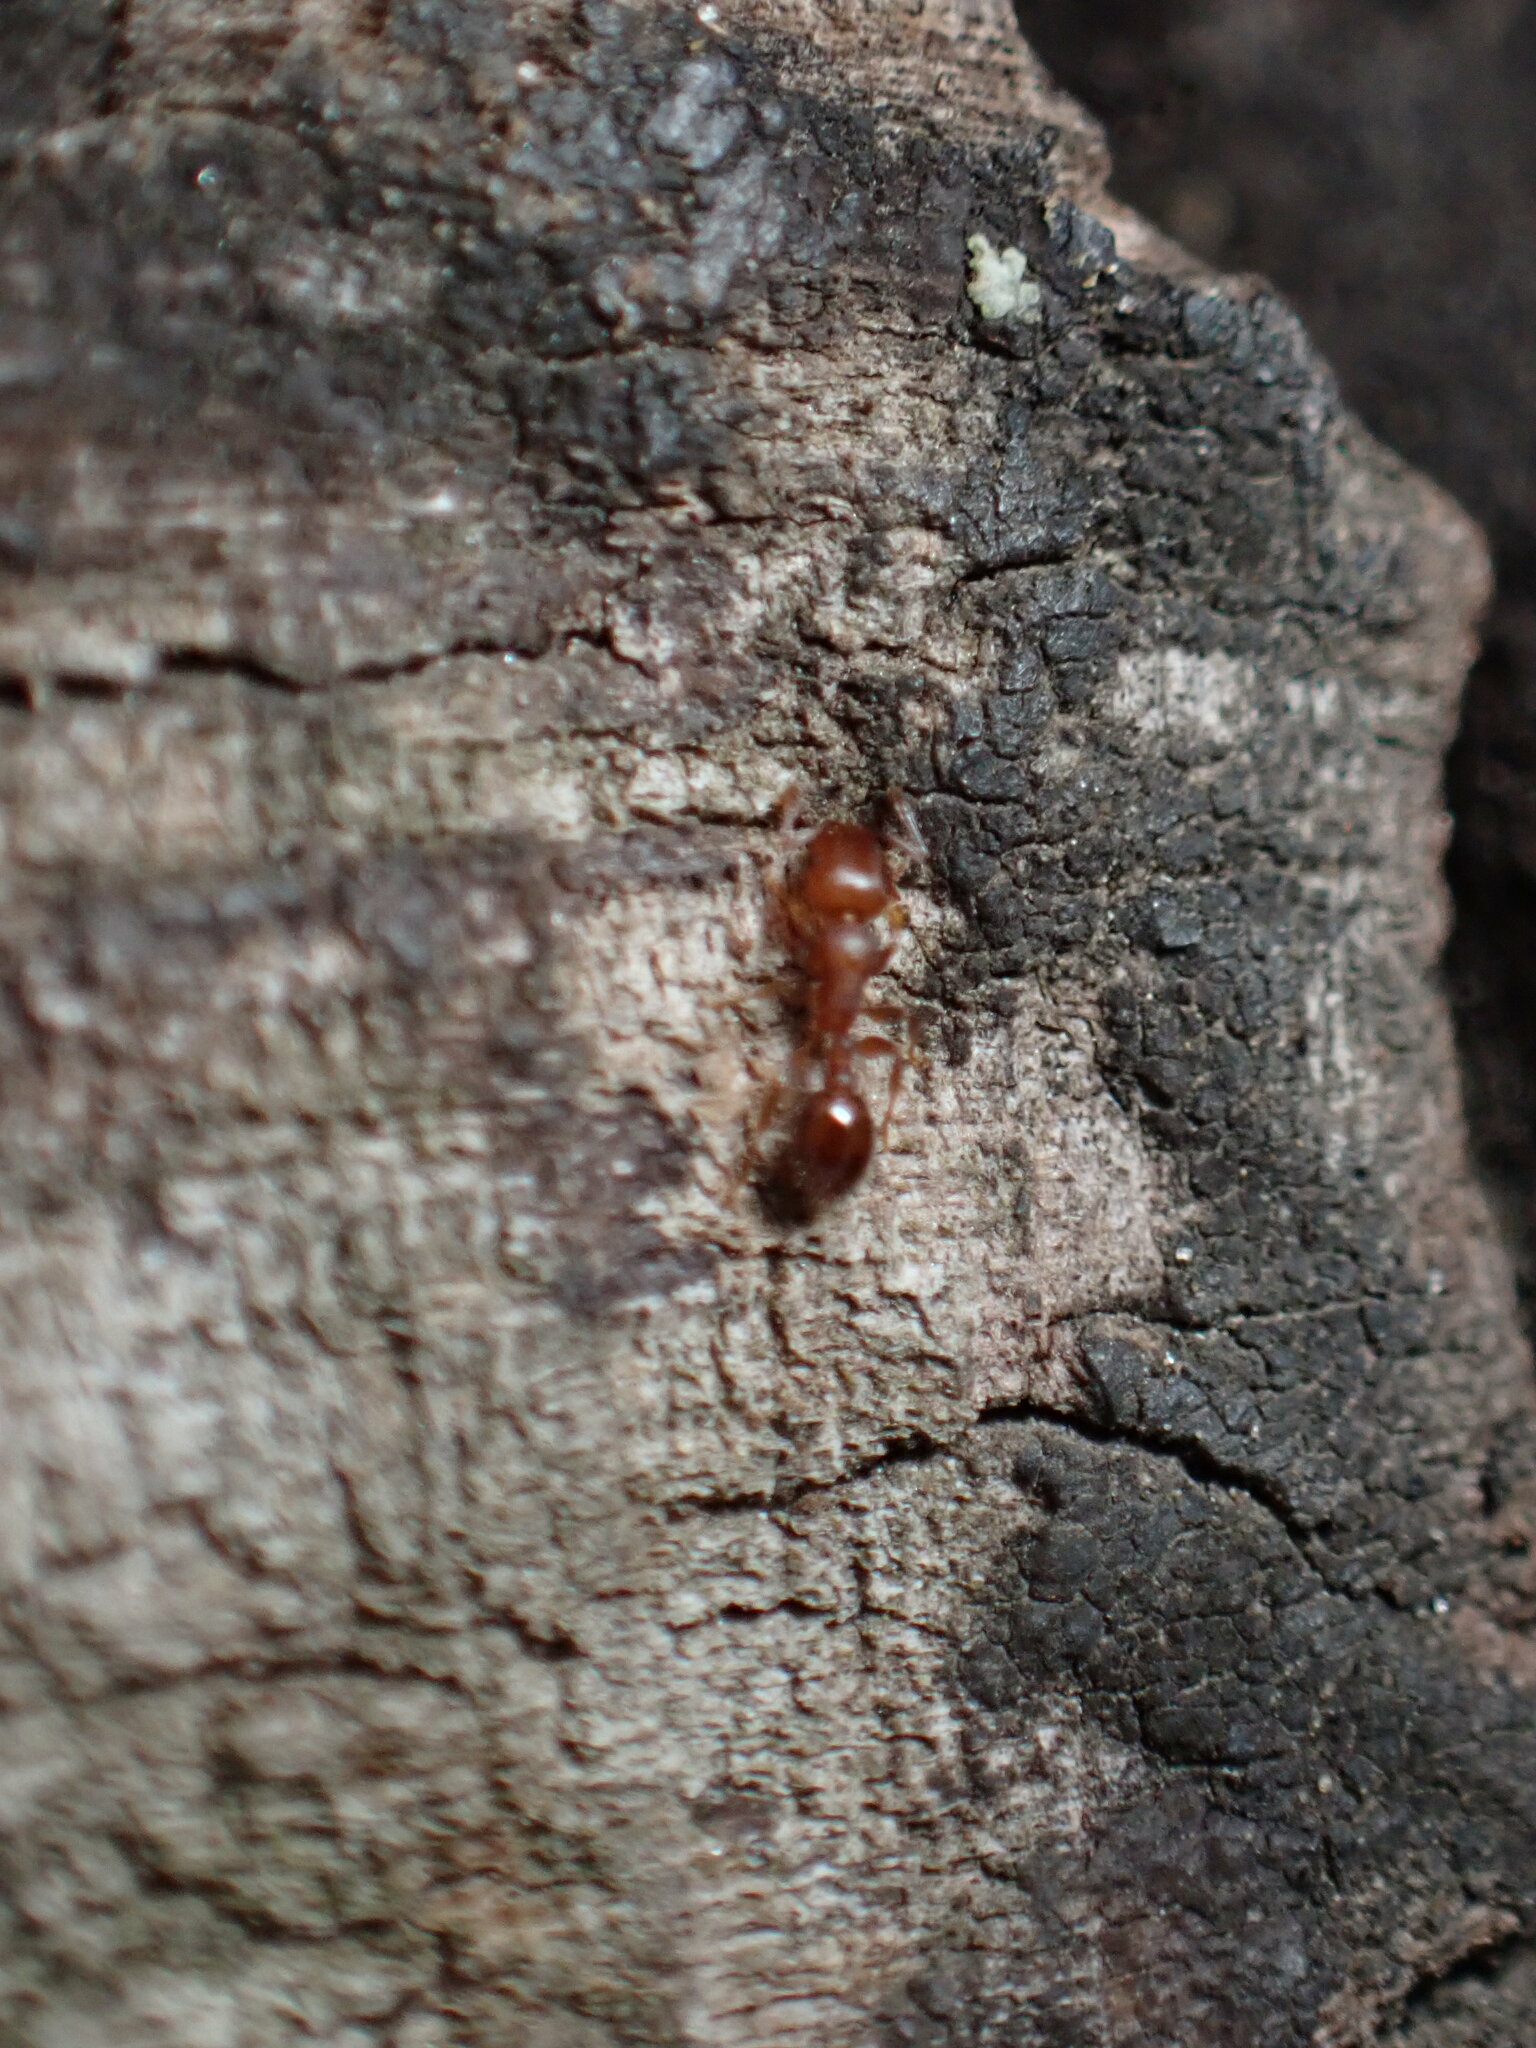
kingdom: Animalia
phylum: Arthropoda
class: Insecta
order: Hymenoptera
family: Formicidae
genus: Leptothorax
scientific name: Leptothorax schaumii
